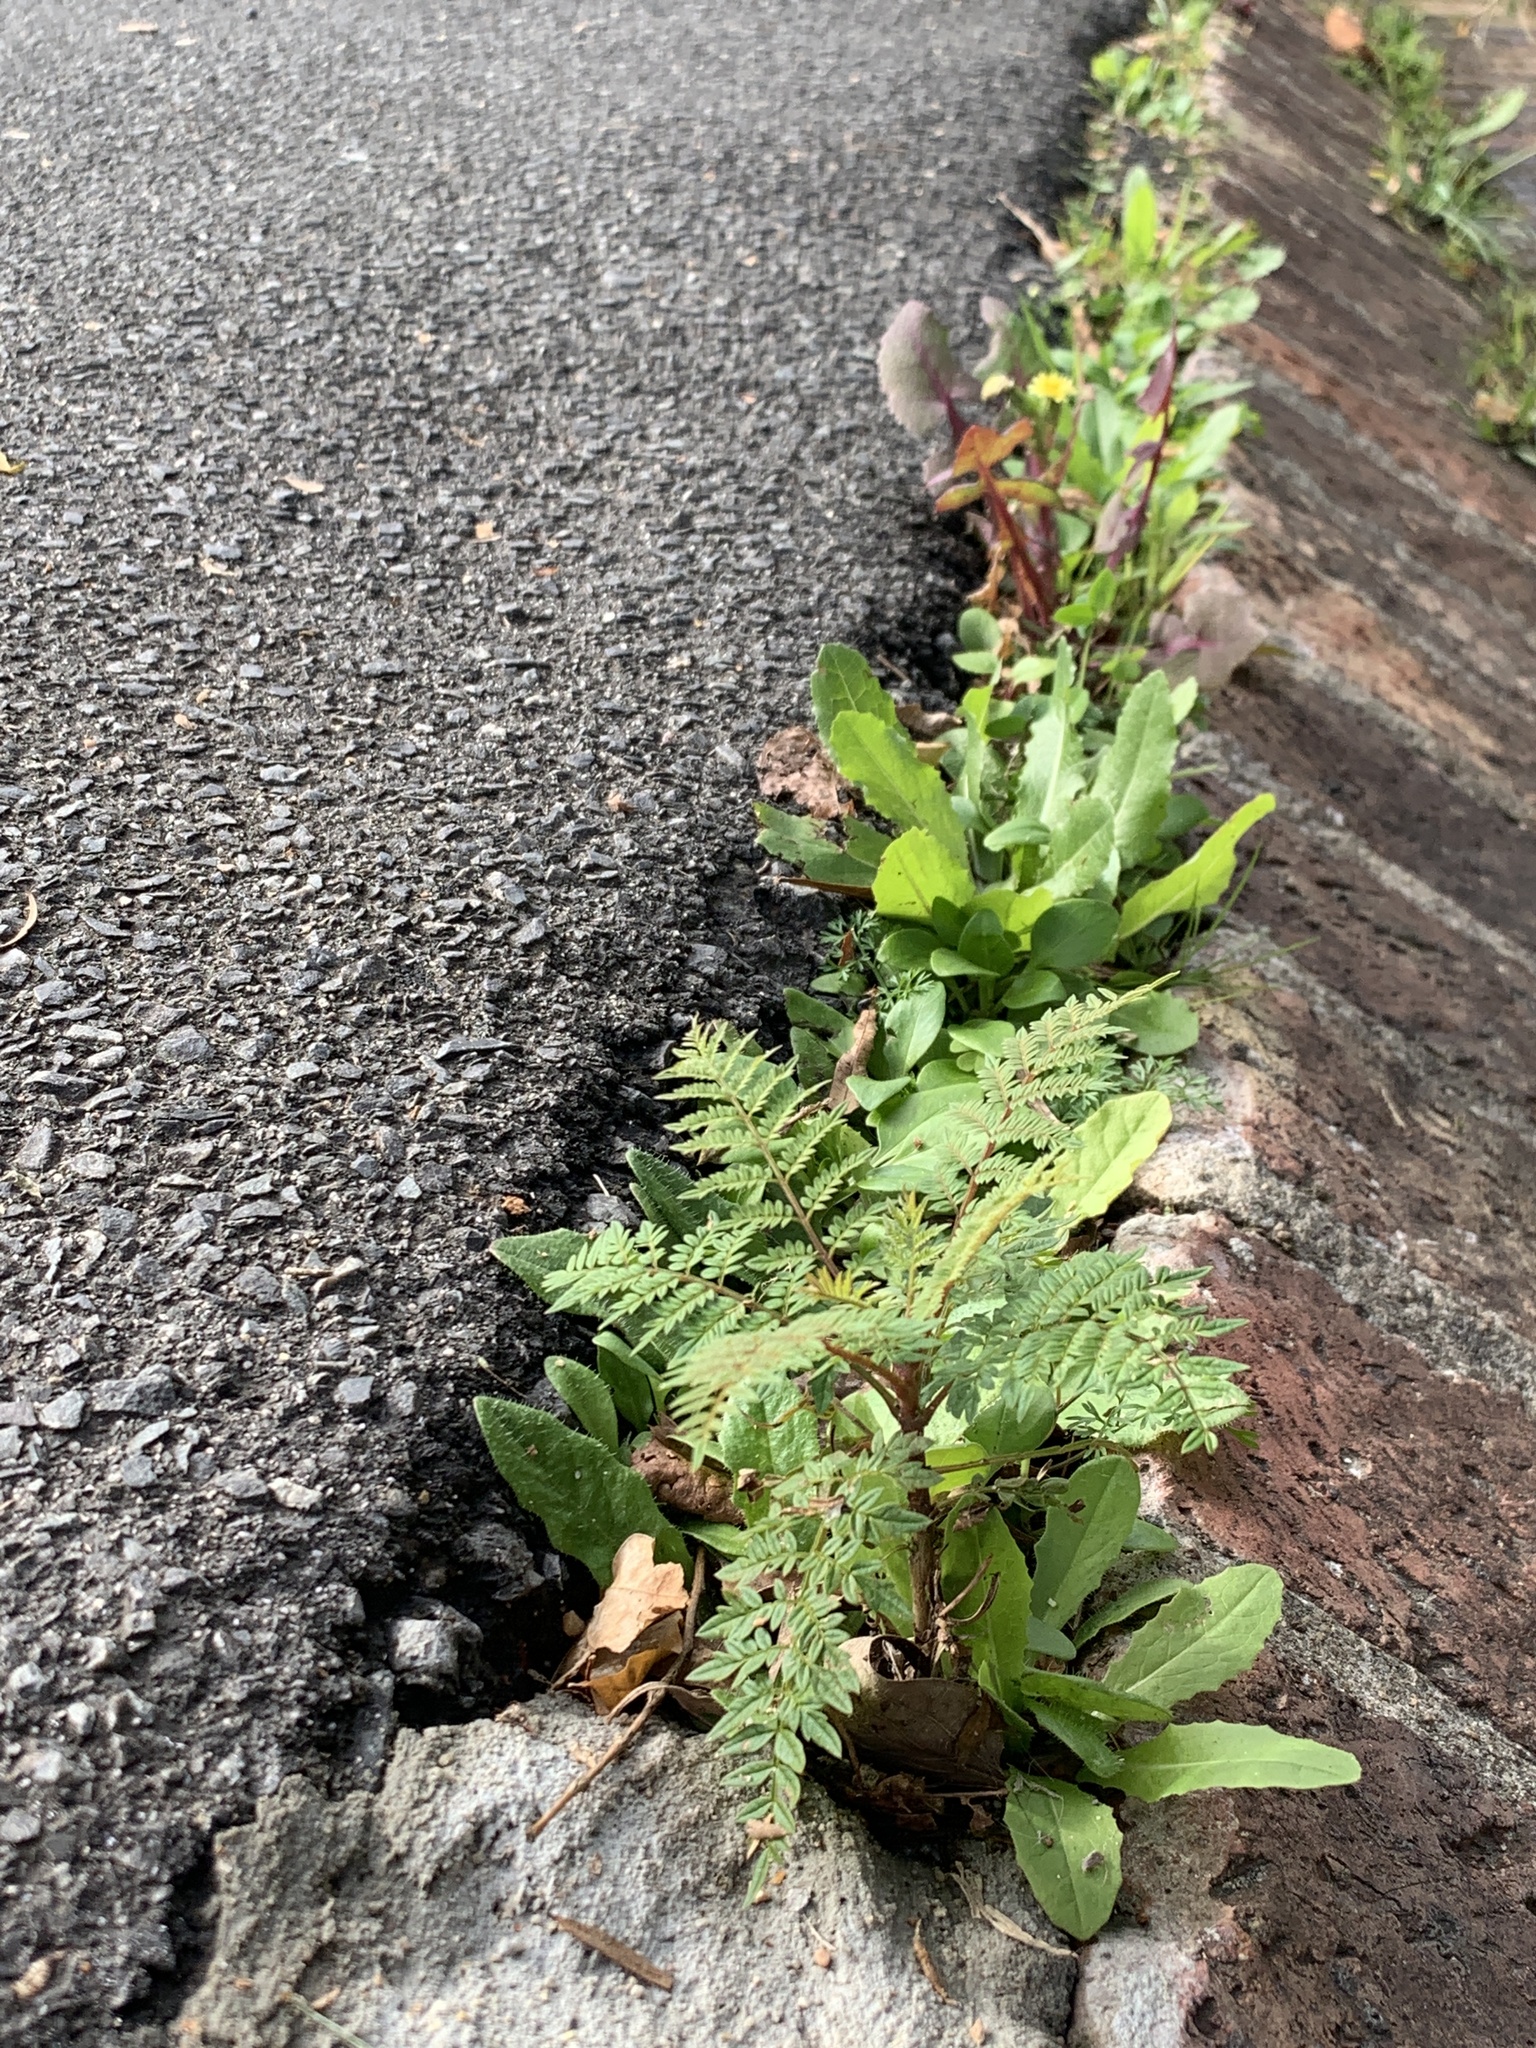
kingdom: Plantae
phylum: Tracheophyta
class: Magnoliopsida
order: Lamiales
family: Bignoniaceae
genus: Jacaranda
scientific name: Jacaranda mimosifolia
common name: Black poui
